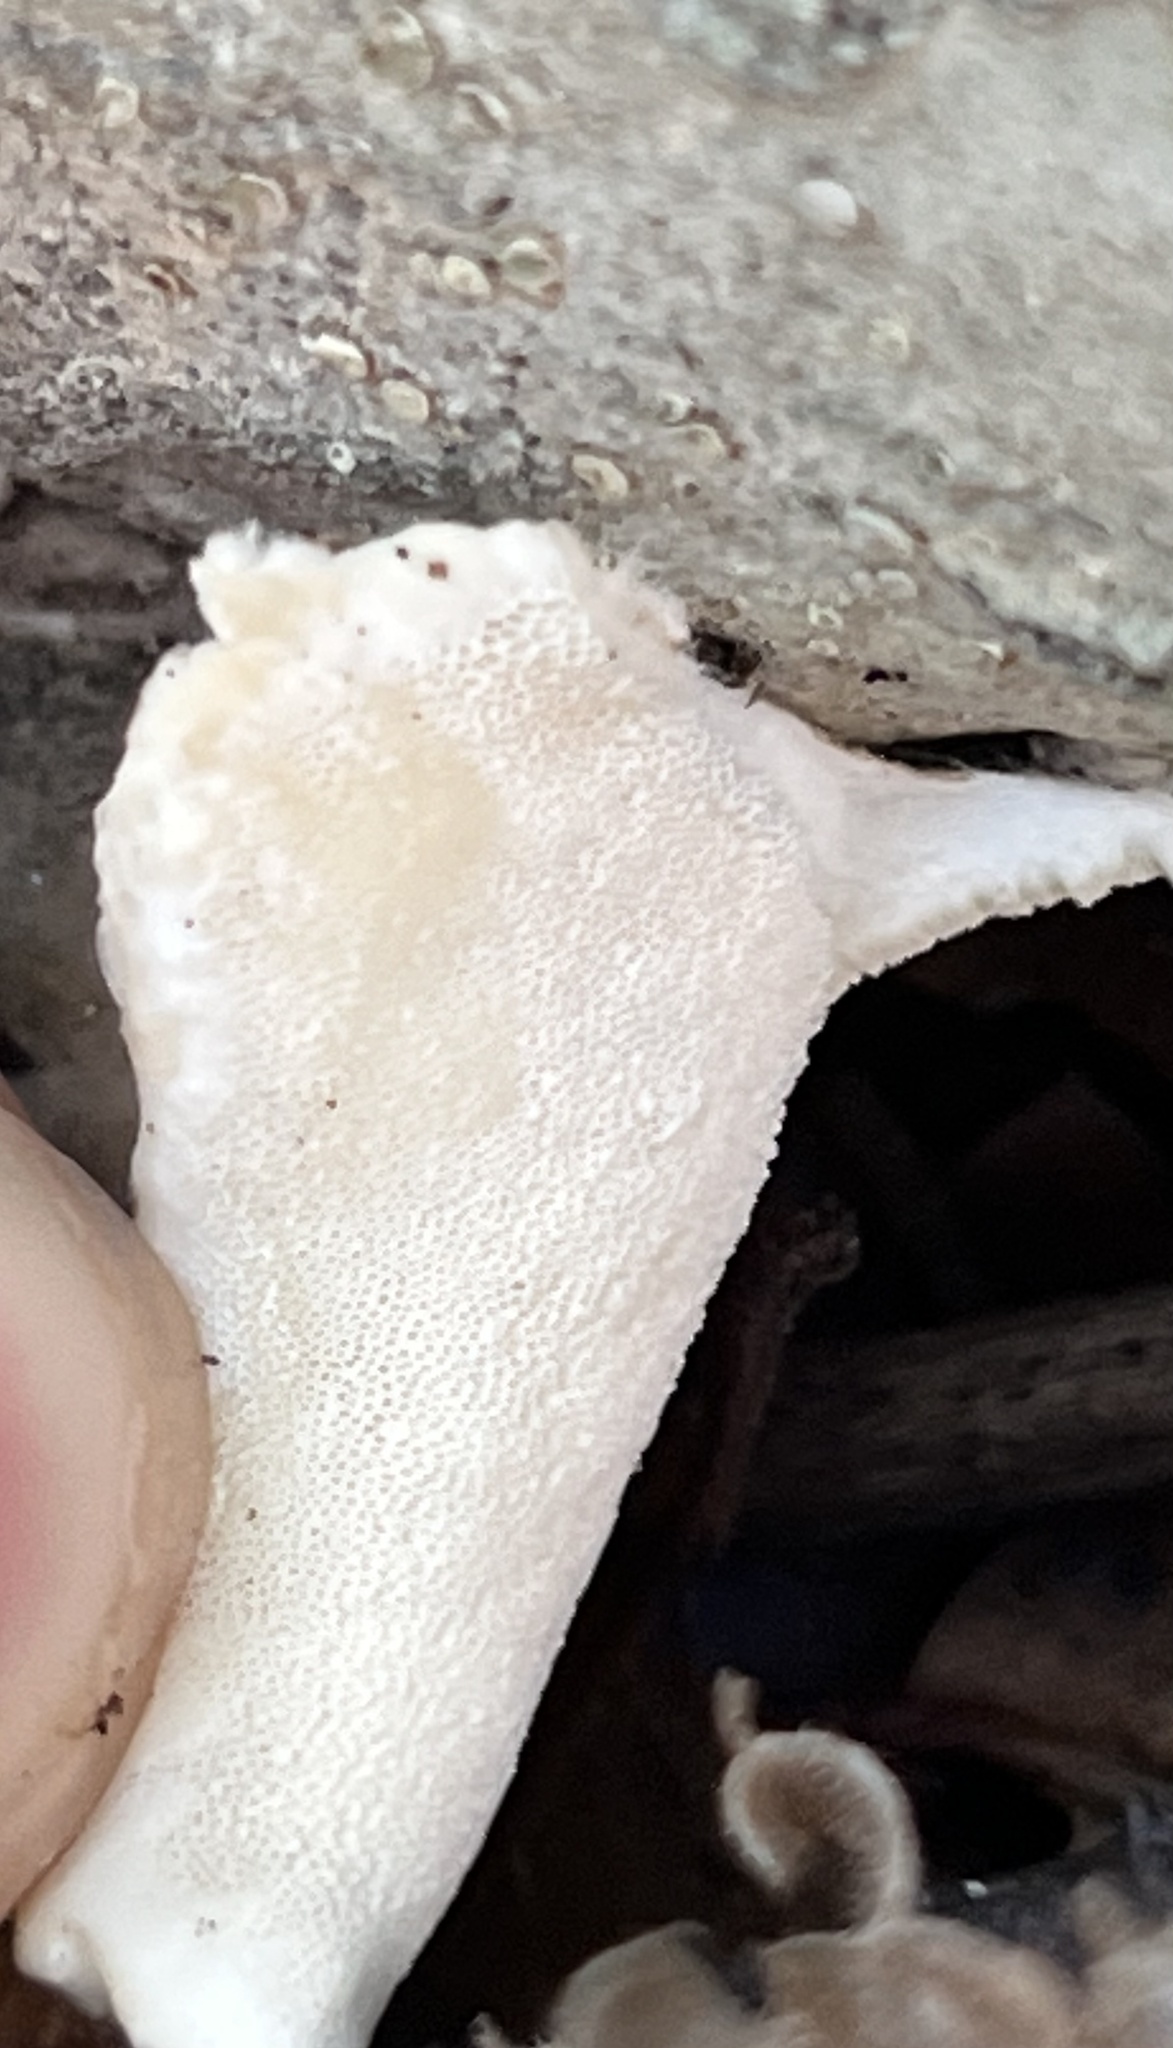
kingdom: Fungi
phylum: Basidiomycota
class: Agaricomycetes
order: Polyporales
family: Polyporaceae
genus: Trametes
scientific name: Trametes versicolor
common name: Turkeytail
